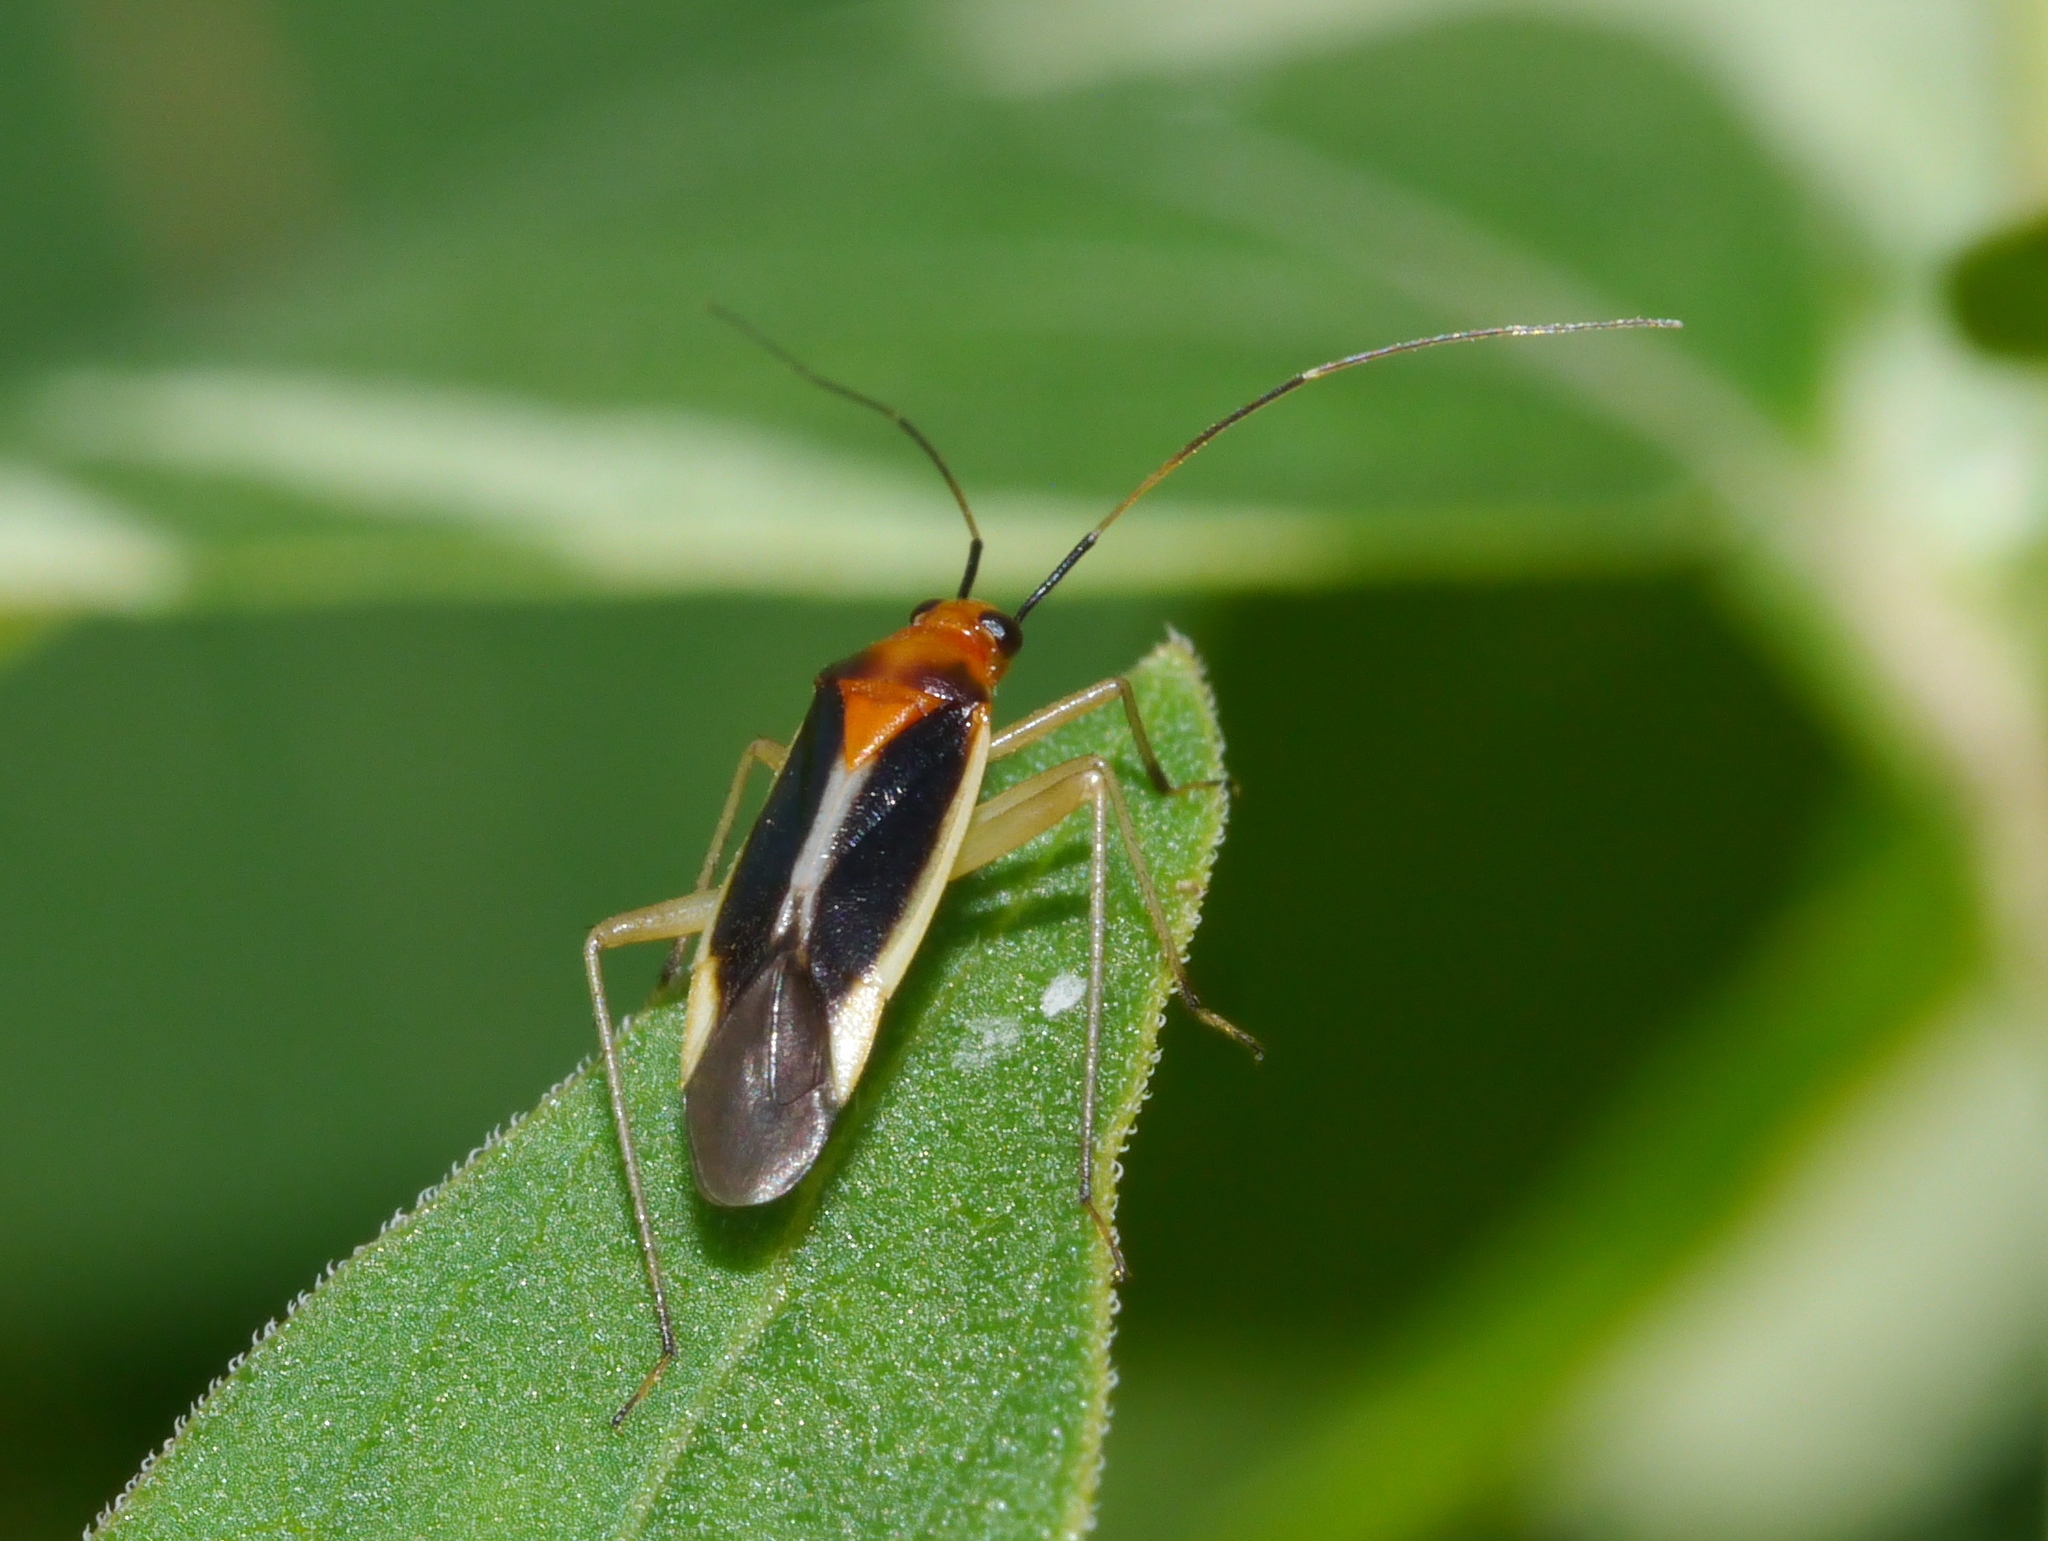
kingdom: Animalia
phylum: Arthropoda
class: Insecta
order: Hemiptera
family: Miridae
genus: Ganocapsus
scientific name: Ganocapsus filiformis
